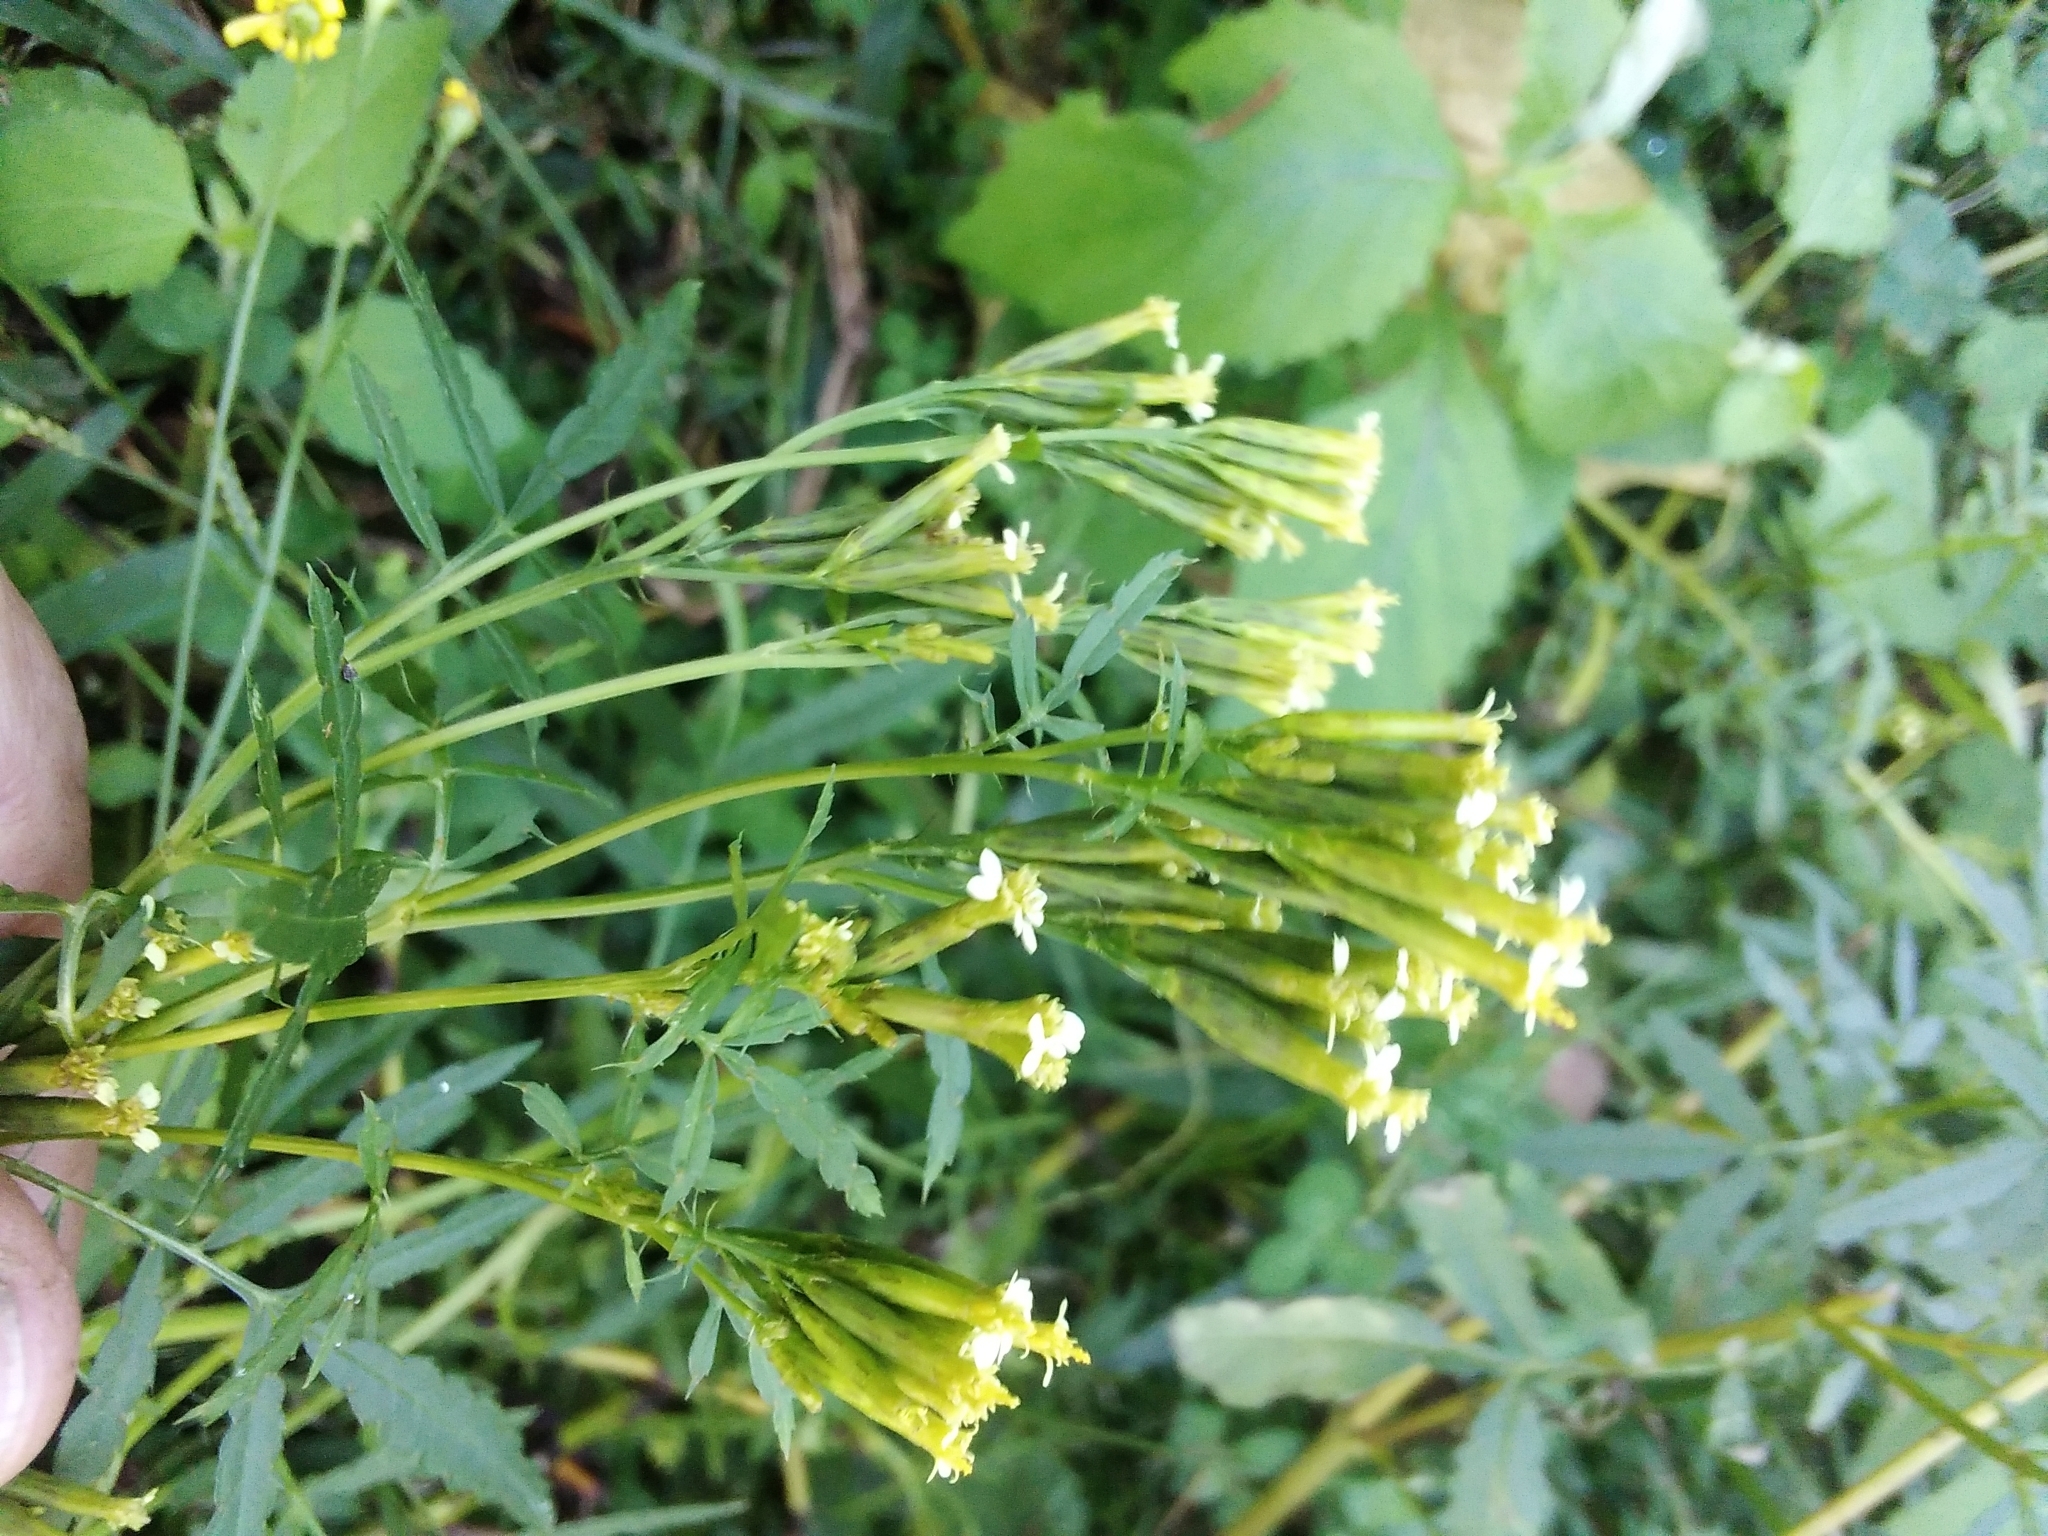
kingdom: Plantae
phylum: Tracheophyta
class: Magnoliopsida
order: Asterales
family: Asteraceae
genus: Tagetes
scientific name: Tagetes minuta
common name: Muster john henry
